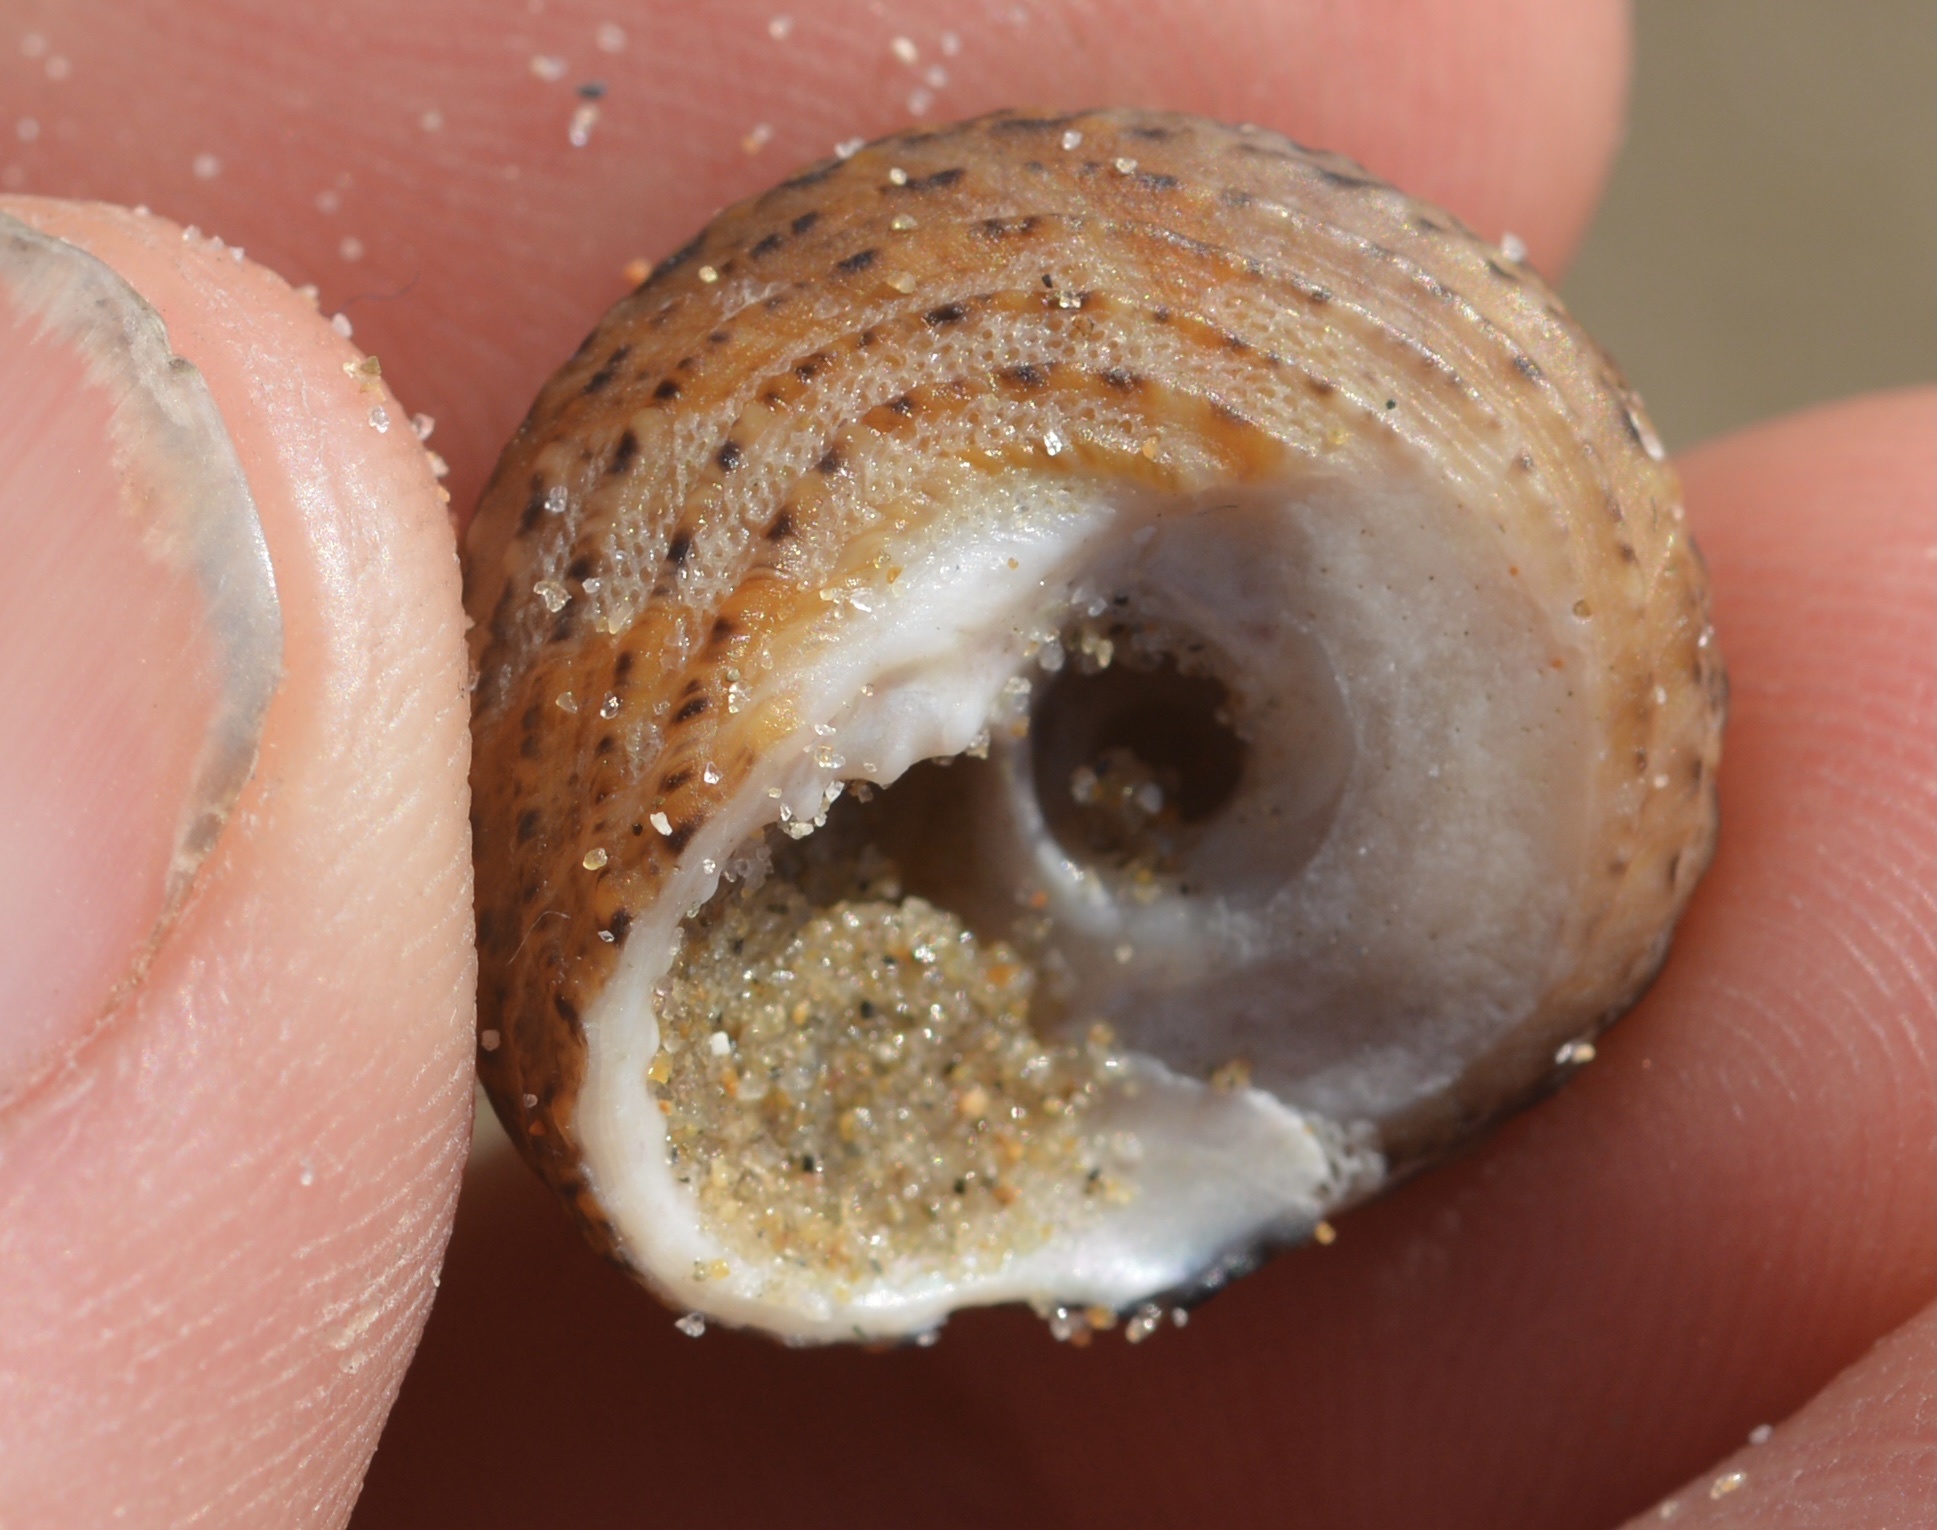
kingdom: Animalia
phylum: Mollusca
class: Gastropoda
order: Trochida
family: Tegulidae
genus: Tegula
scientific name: Tegula eiseni
